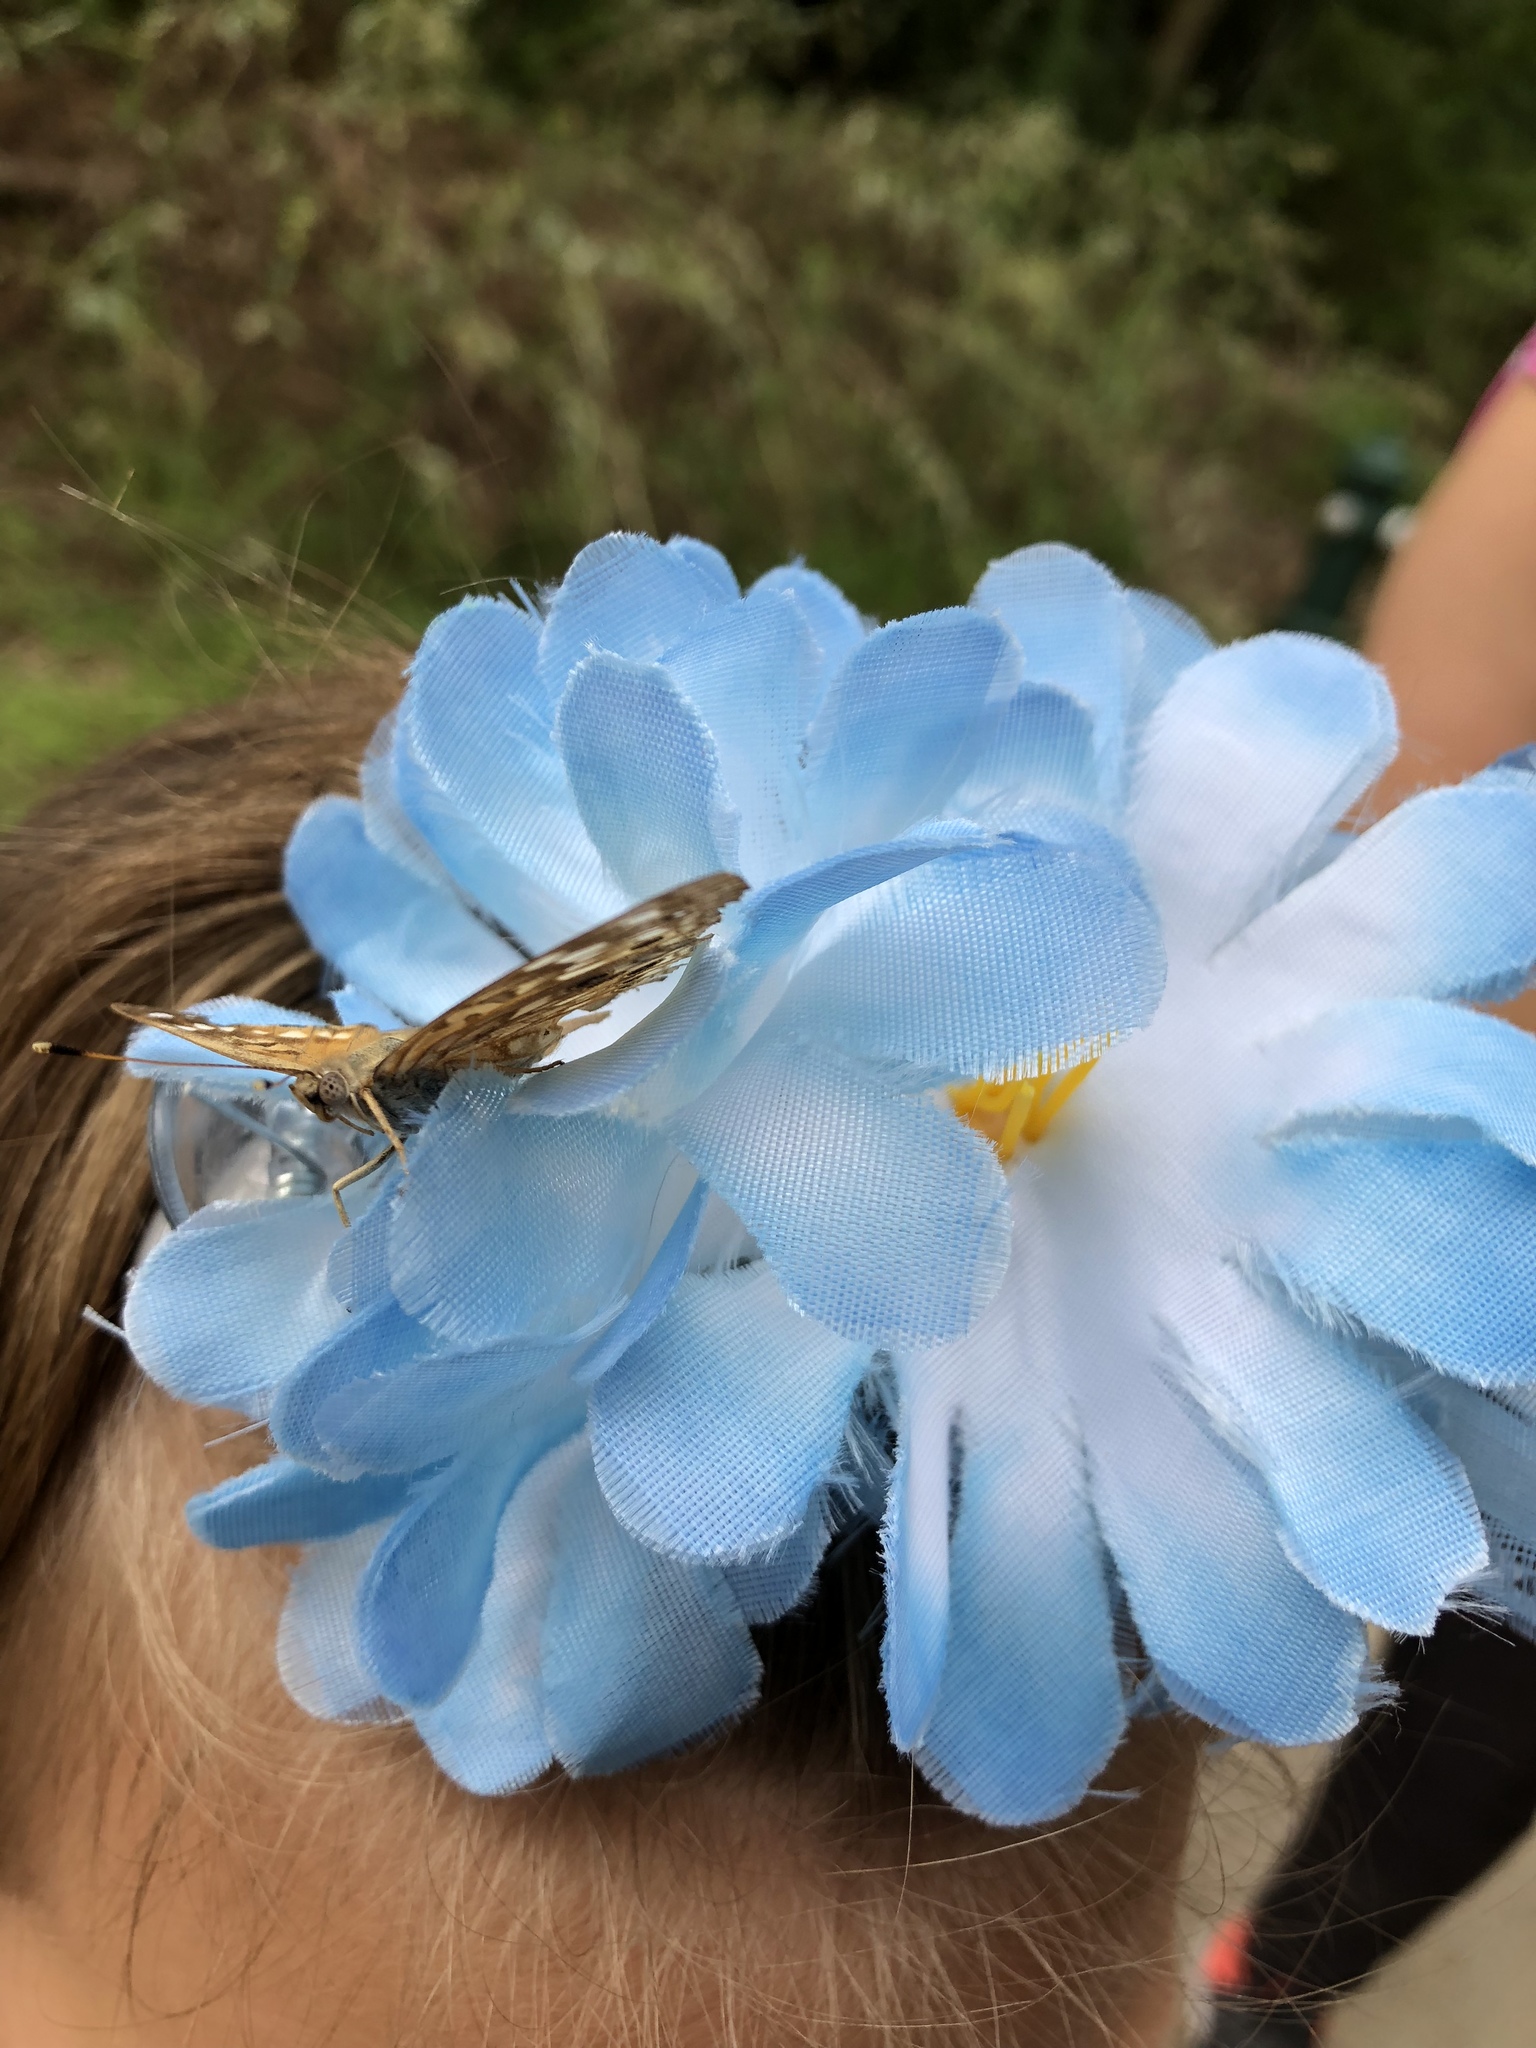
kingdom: Animalia
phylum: Arthropoda
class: Insecta
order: Lepidoptera
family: Nymphalidae
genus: Asterocampa
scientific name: Asterocampa celtis
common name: Hackberry emperor
